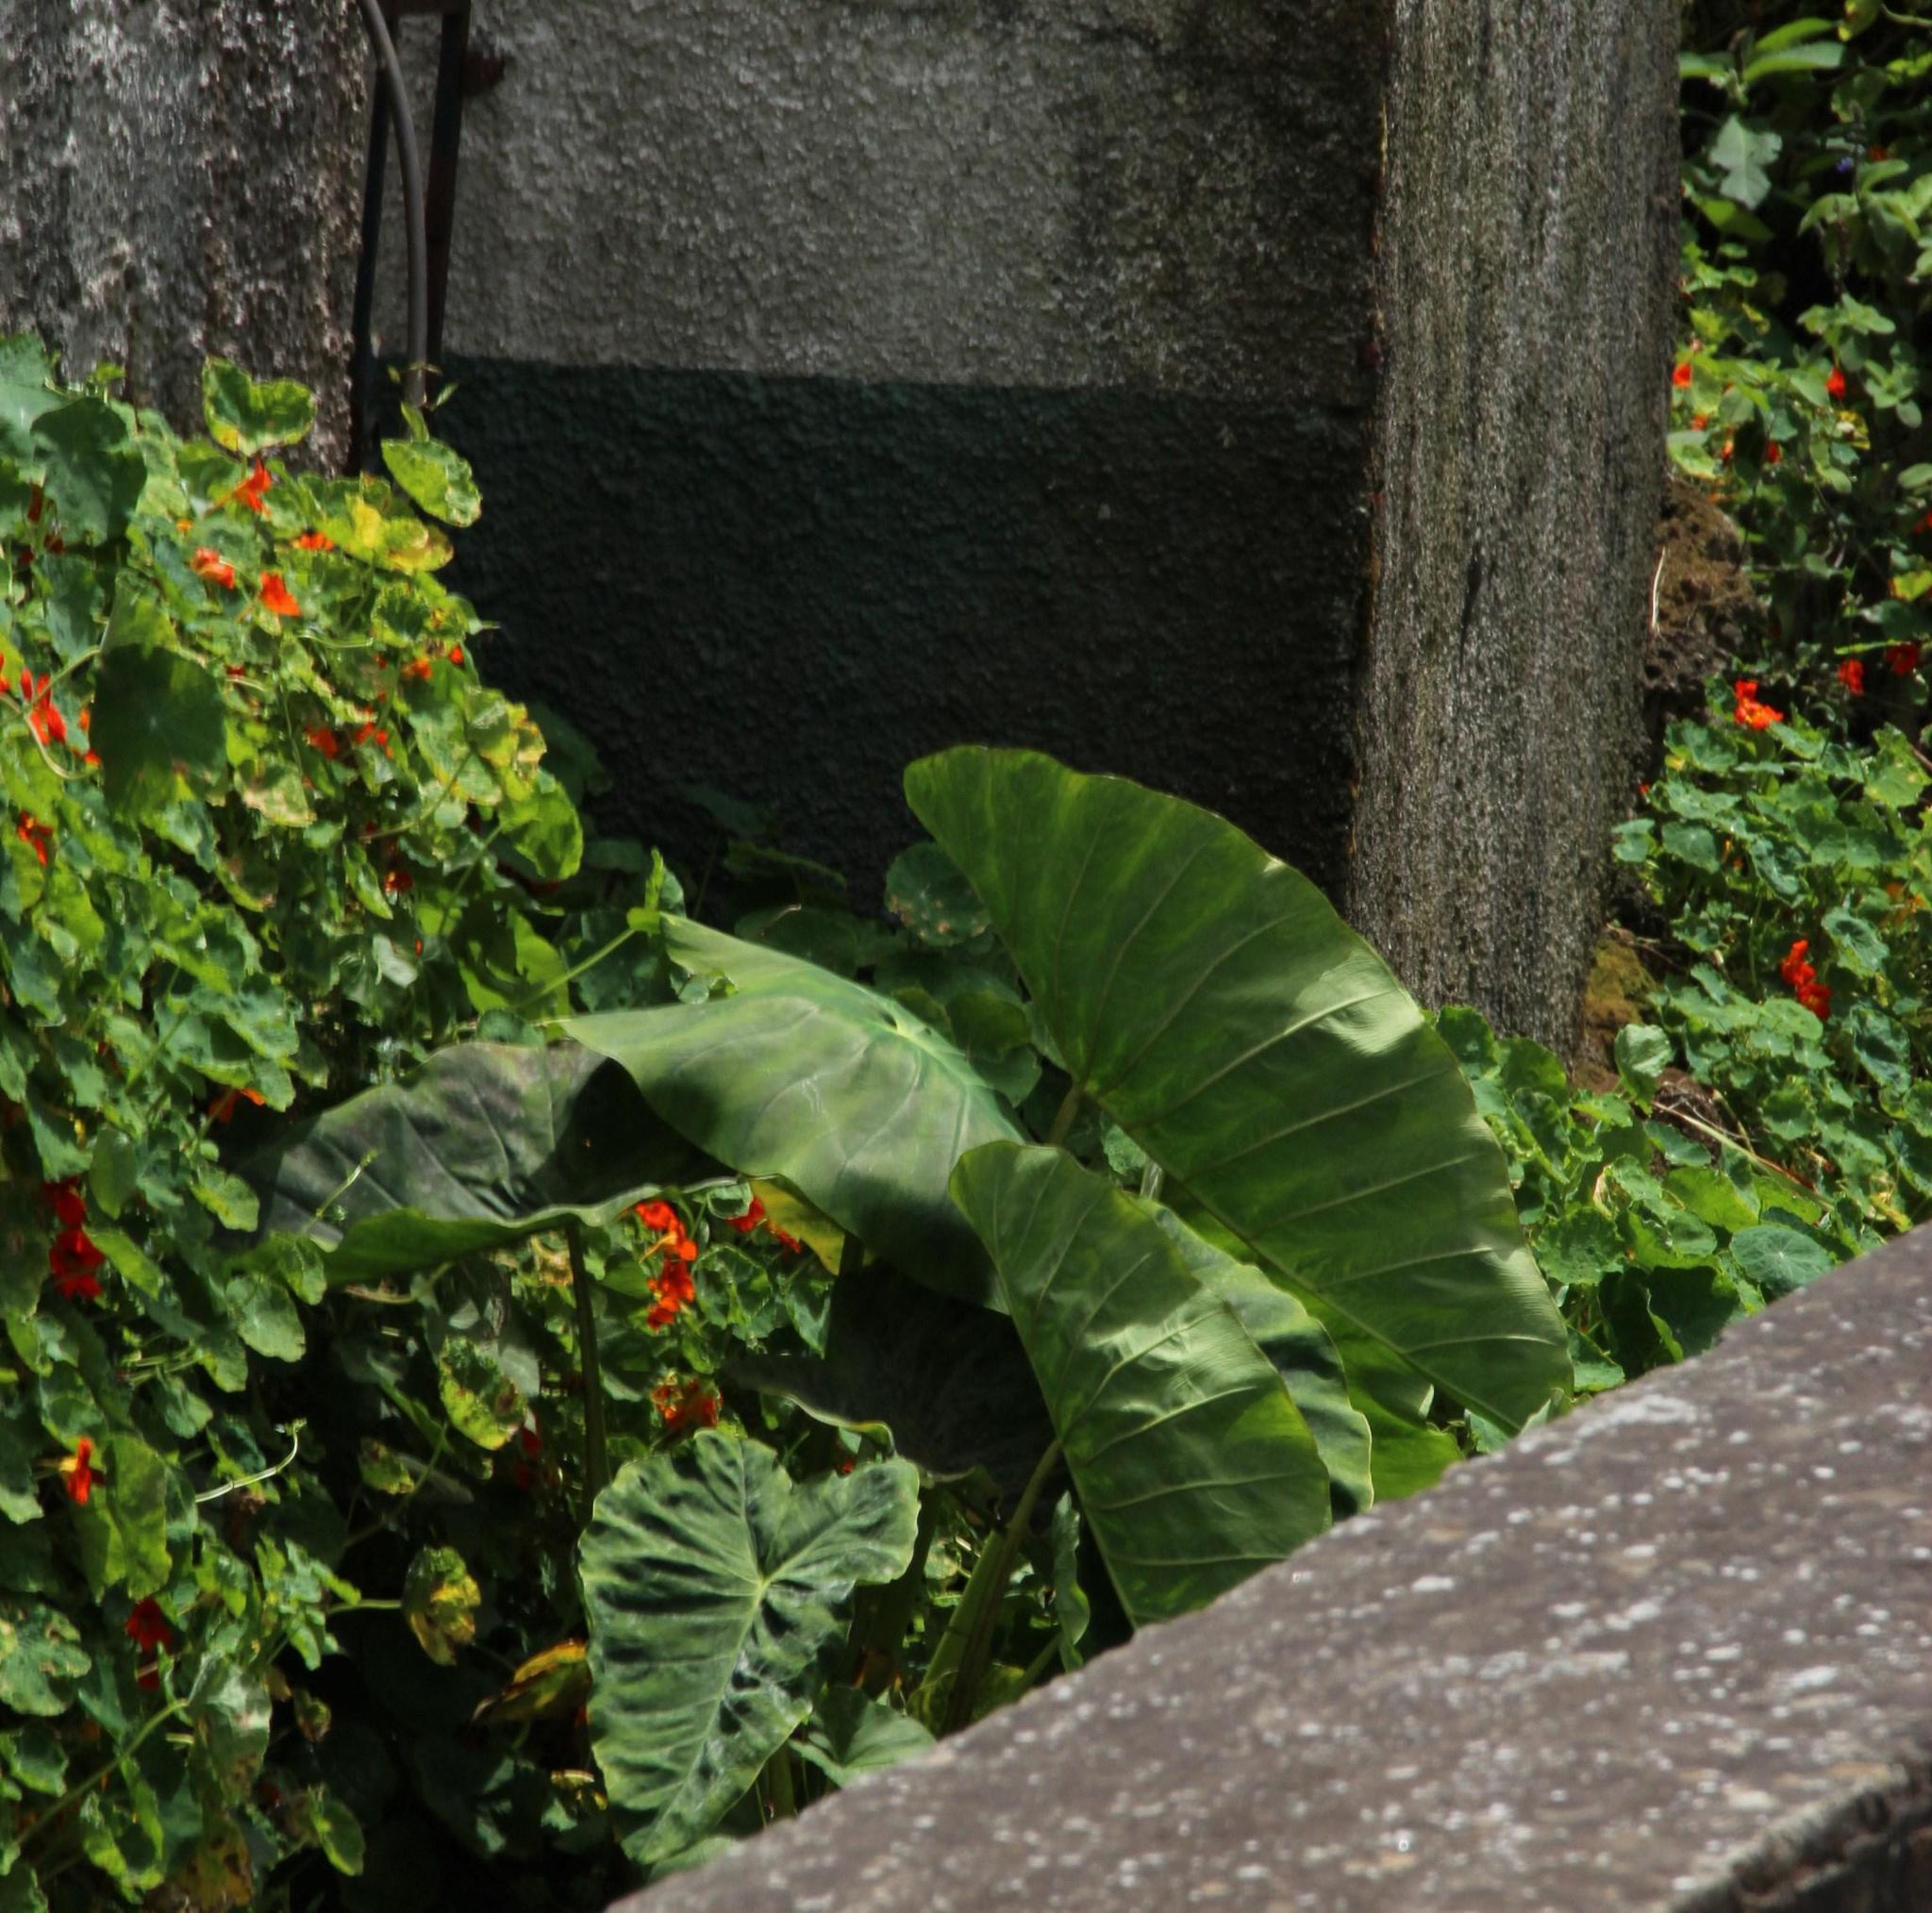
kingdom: Plantae
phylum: Tracheophyta
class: Liliopsida
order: Alismatales
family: Araceae
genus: Colocasia
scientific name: Colocasia esculenta
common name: Taro
